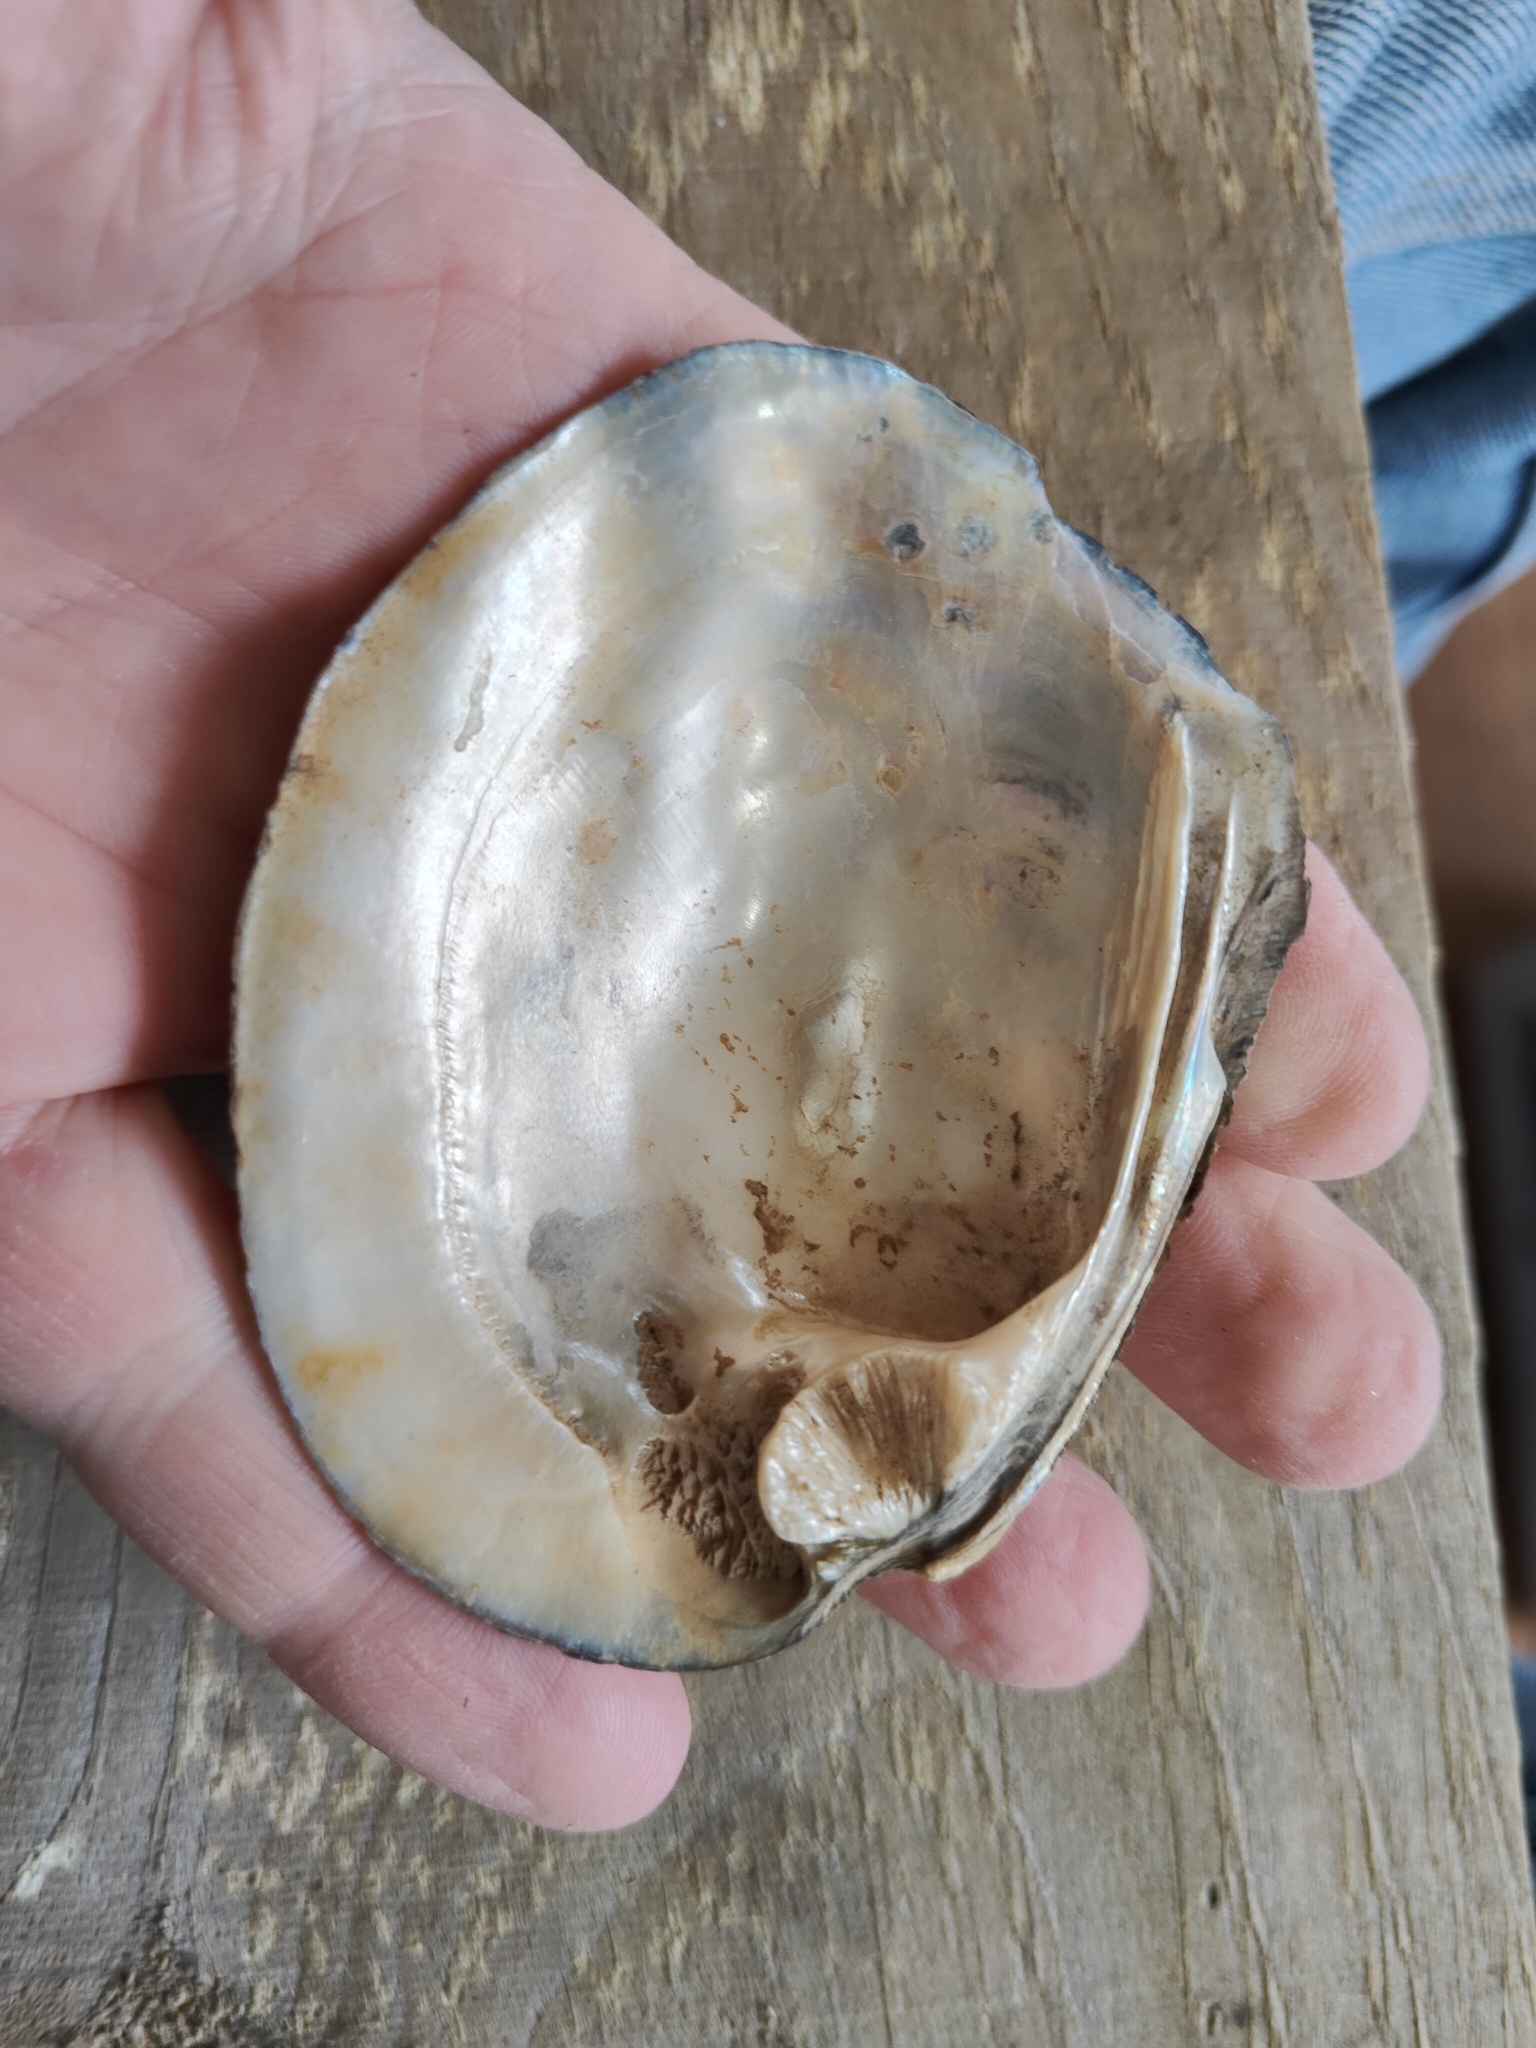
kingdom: Animalia
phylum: Mollusca
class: Bivalvia
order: Unionida
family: Unionidae
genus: Amblema
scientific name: Amblema plicata
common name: Threeridge
